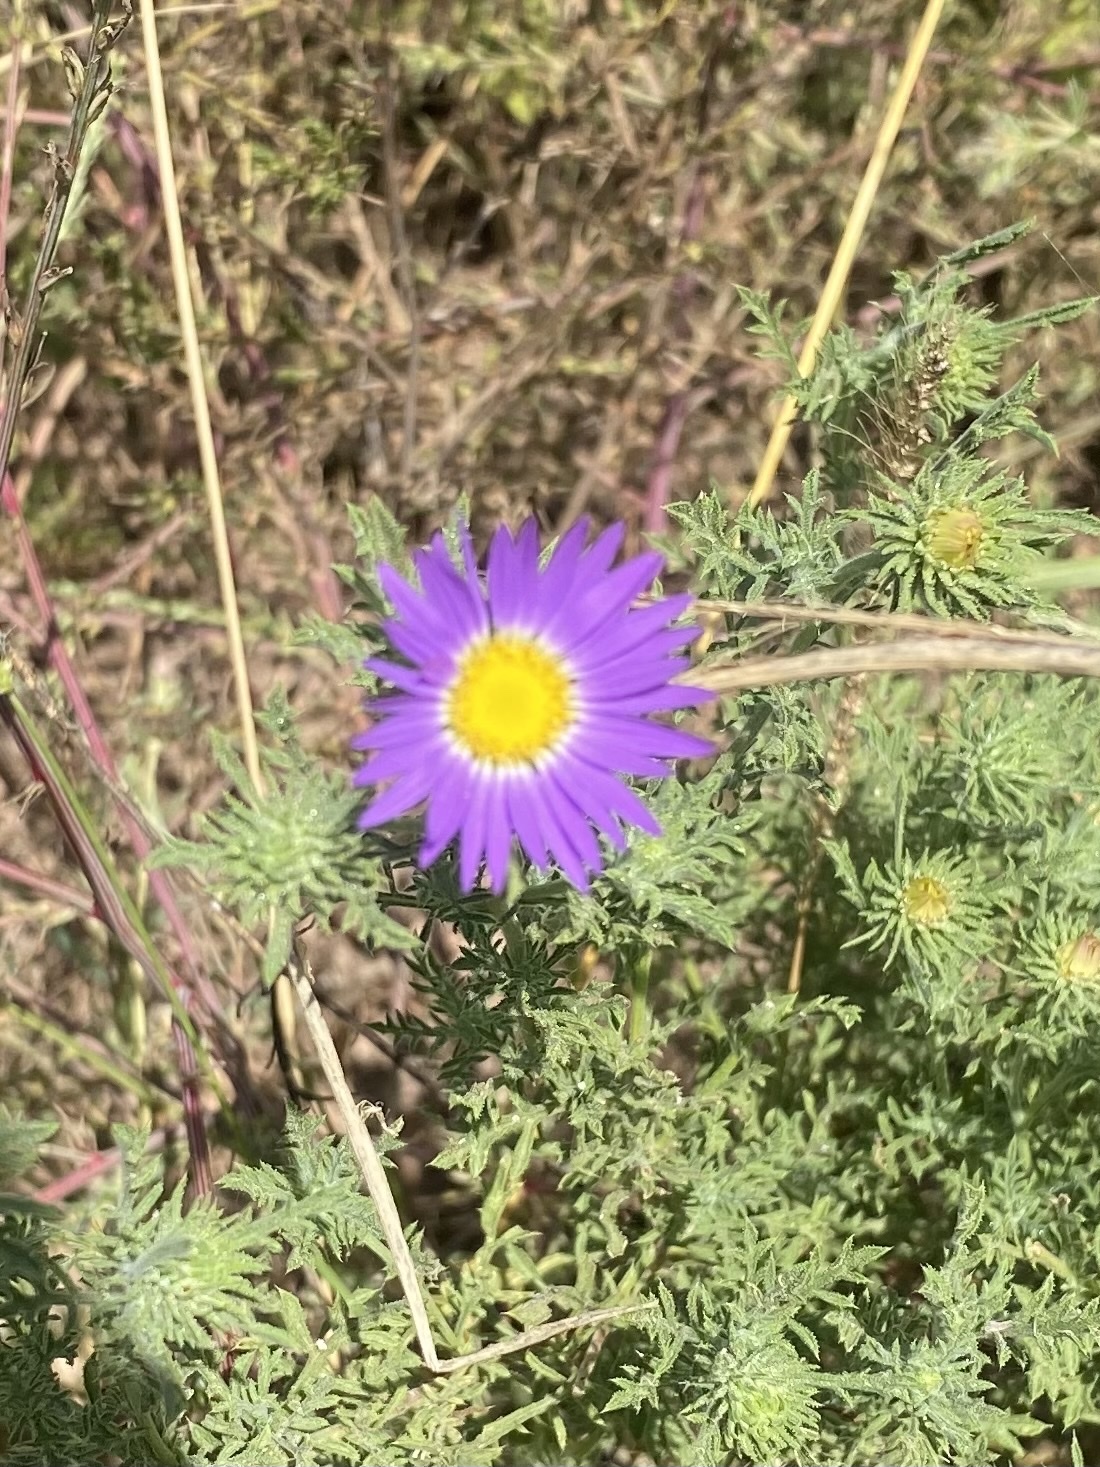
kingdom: Plantae
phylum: Tracheophyta
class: Magnoliopsida
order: Asterales
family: Asteraceae
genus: Machaeranthera
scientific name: Machaeranthera tanacetifolia
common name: Tansy-aster
